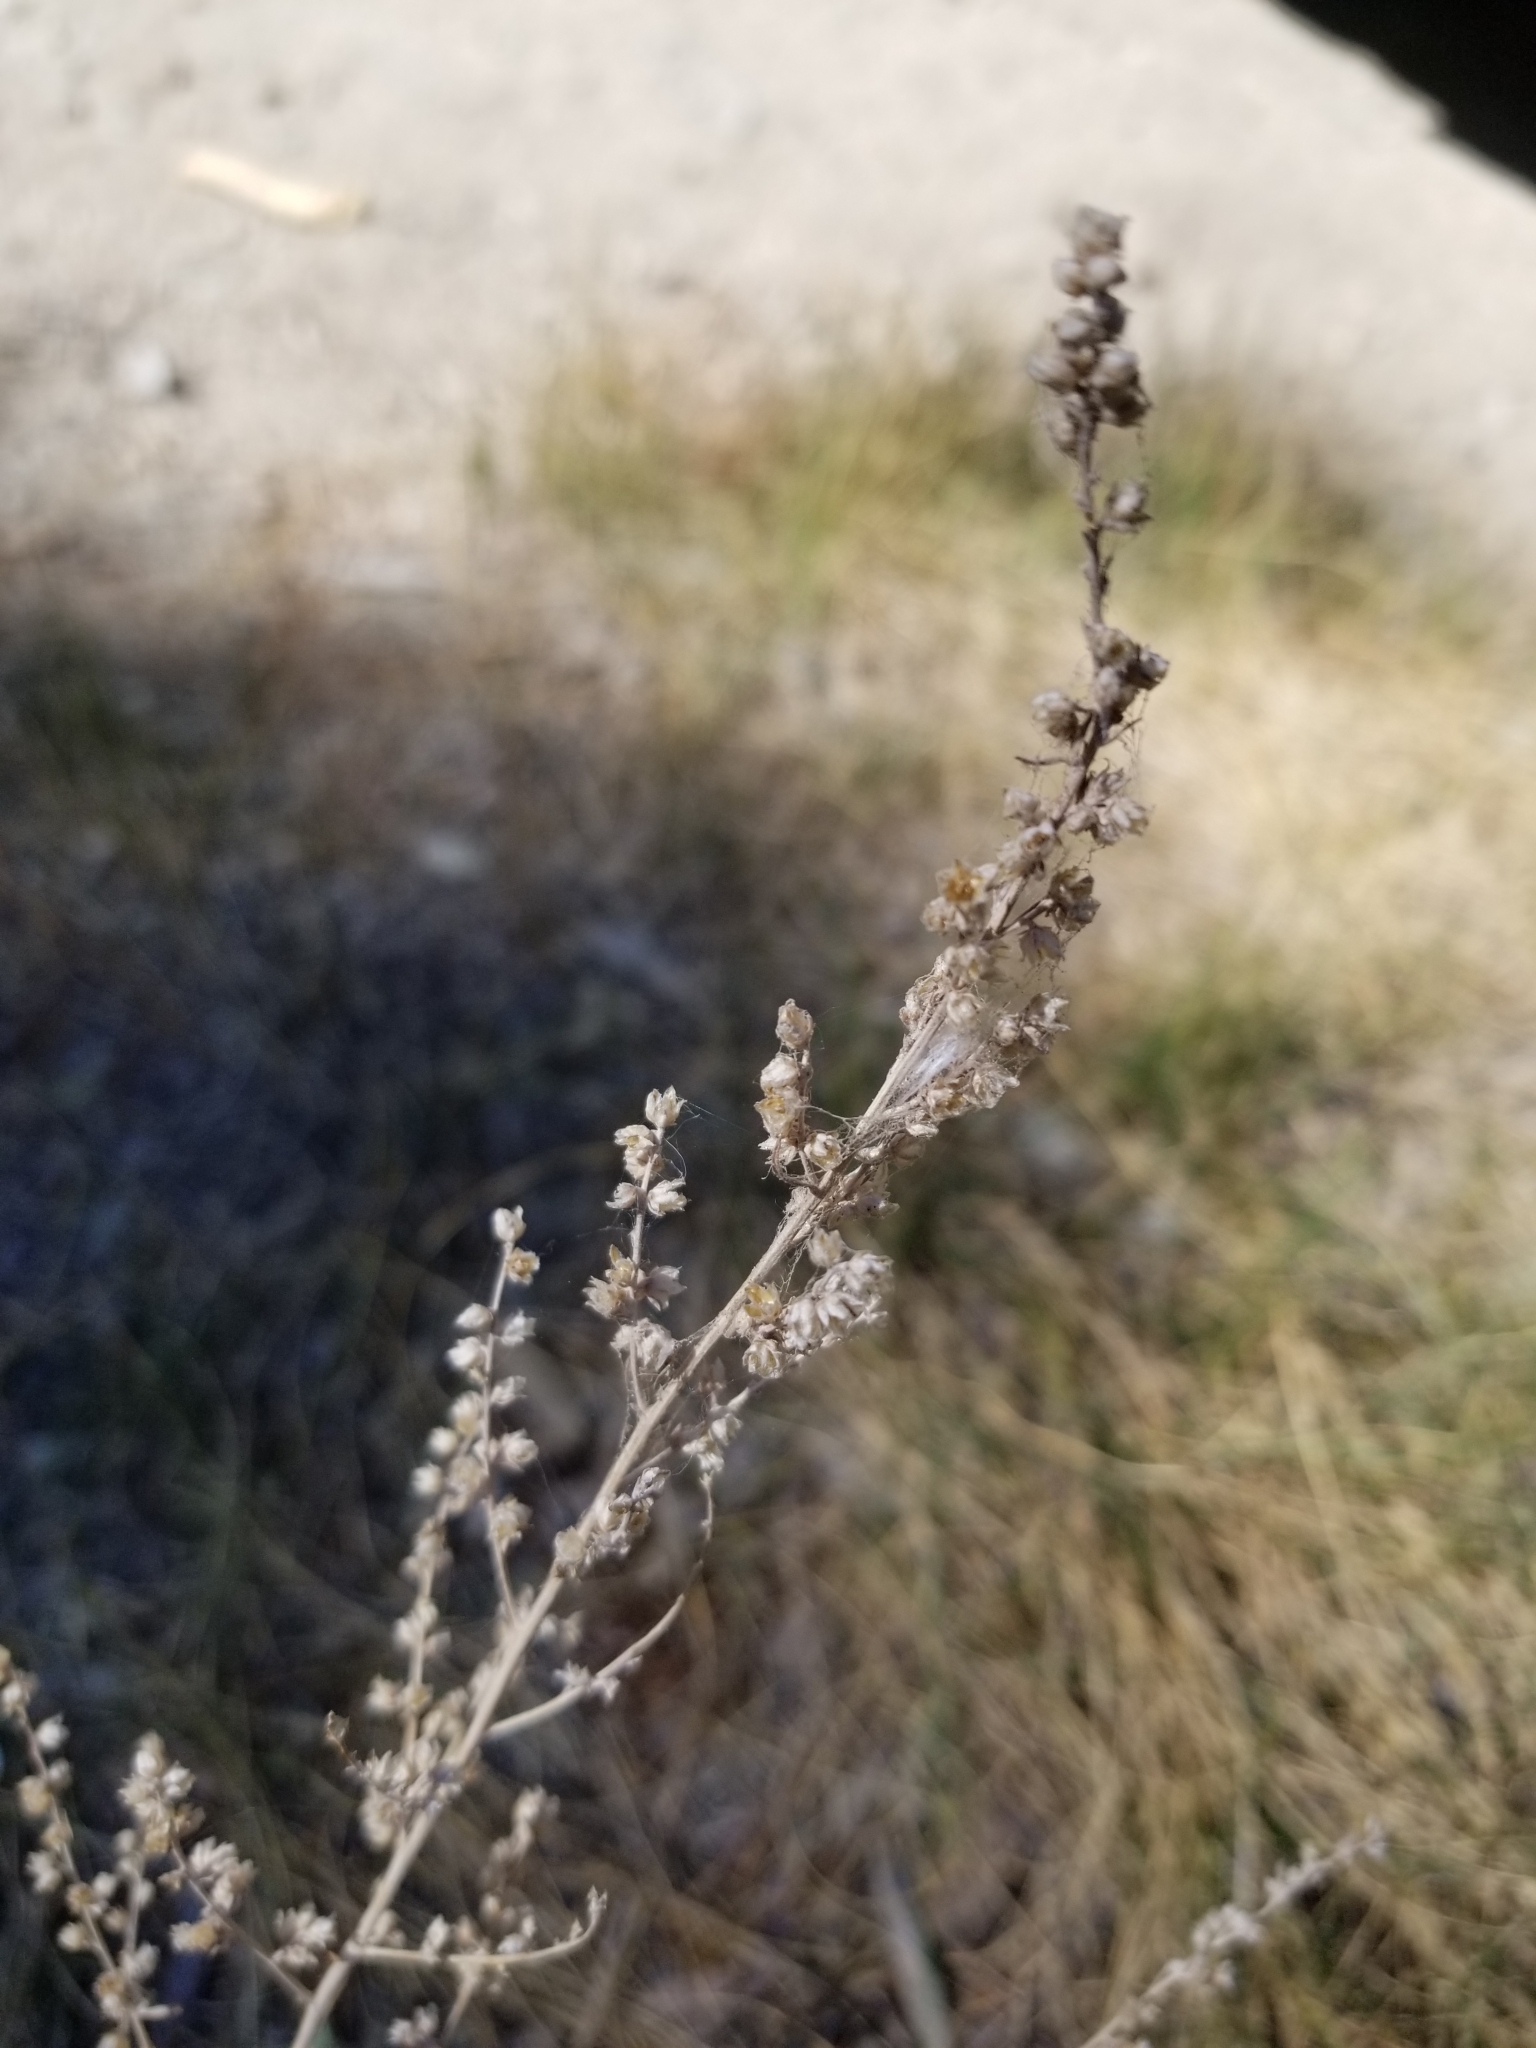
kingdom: Plantae
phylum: Tracheophyta
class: Magnoliopsida
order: Asterales
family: Asteraceae
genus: Artemisia
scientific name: Artemisia ludoviciana
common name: Western mugwort
